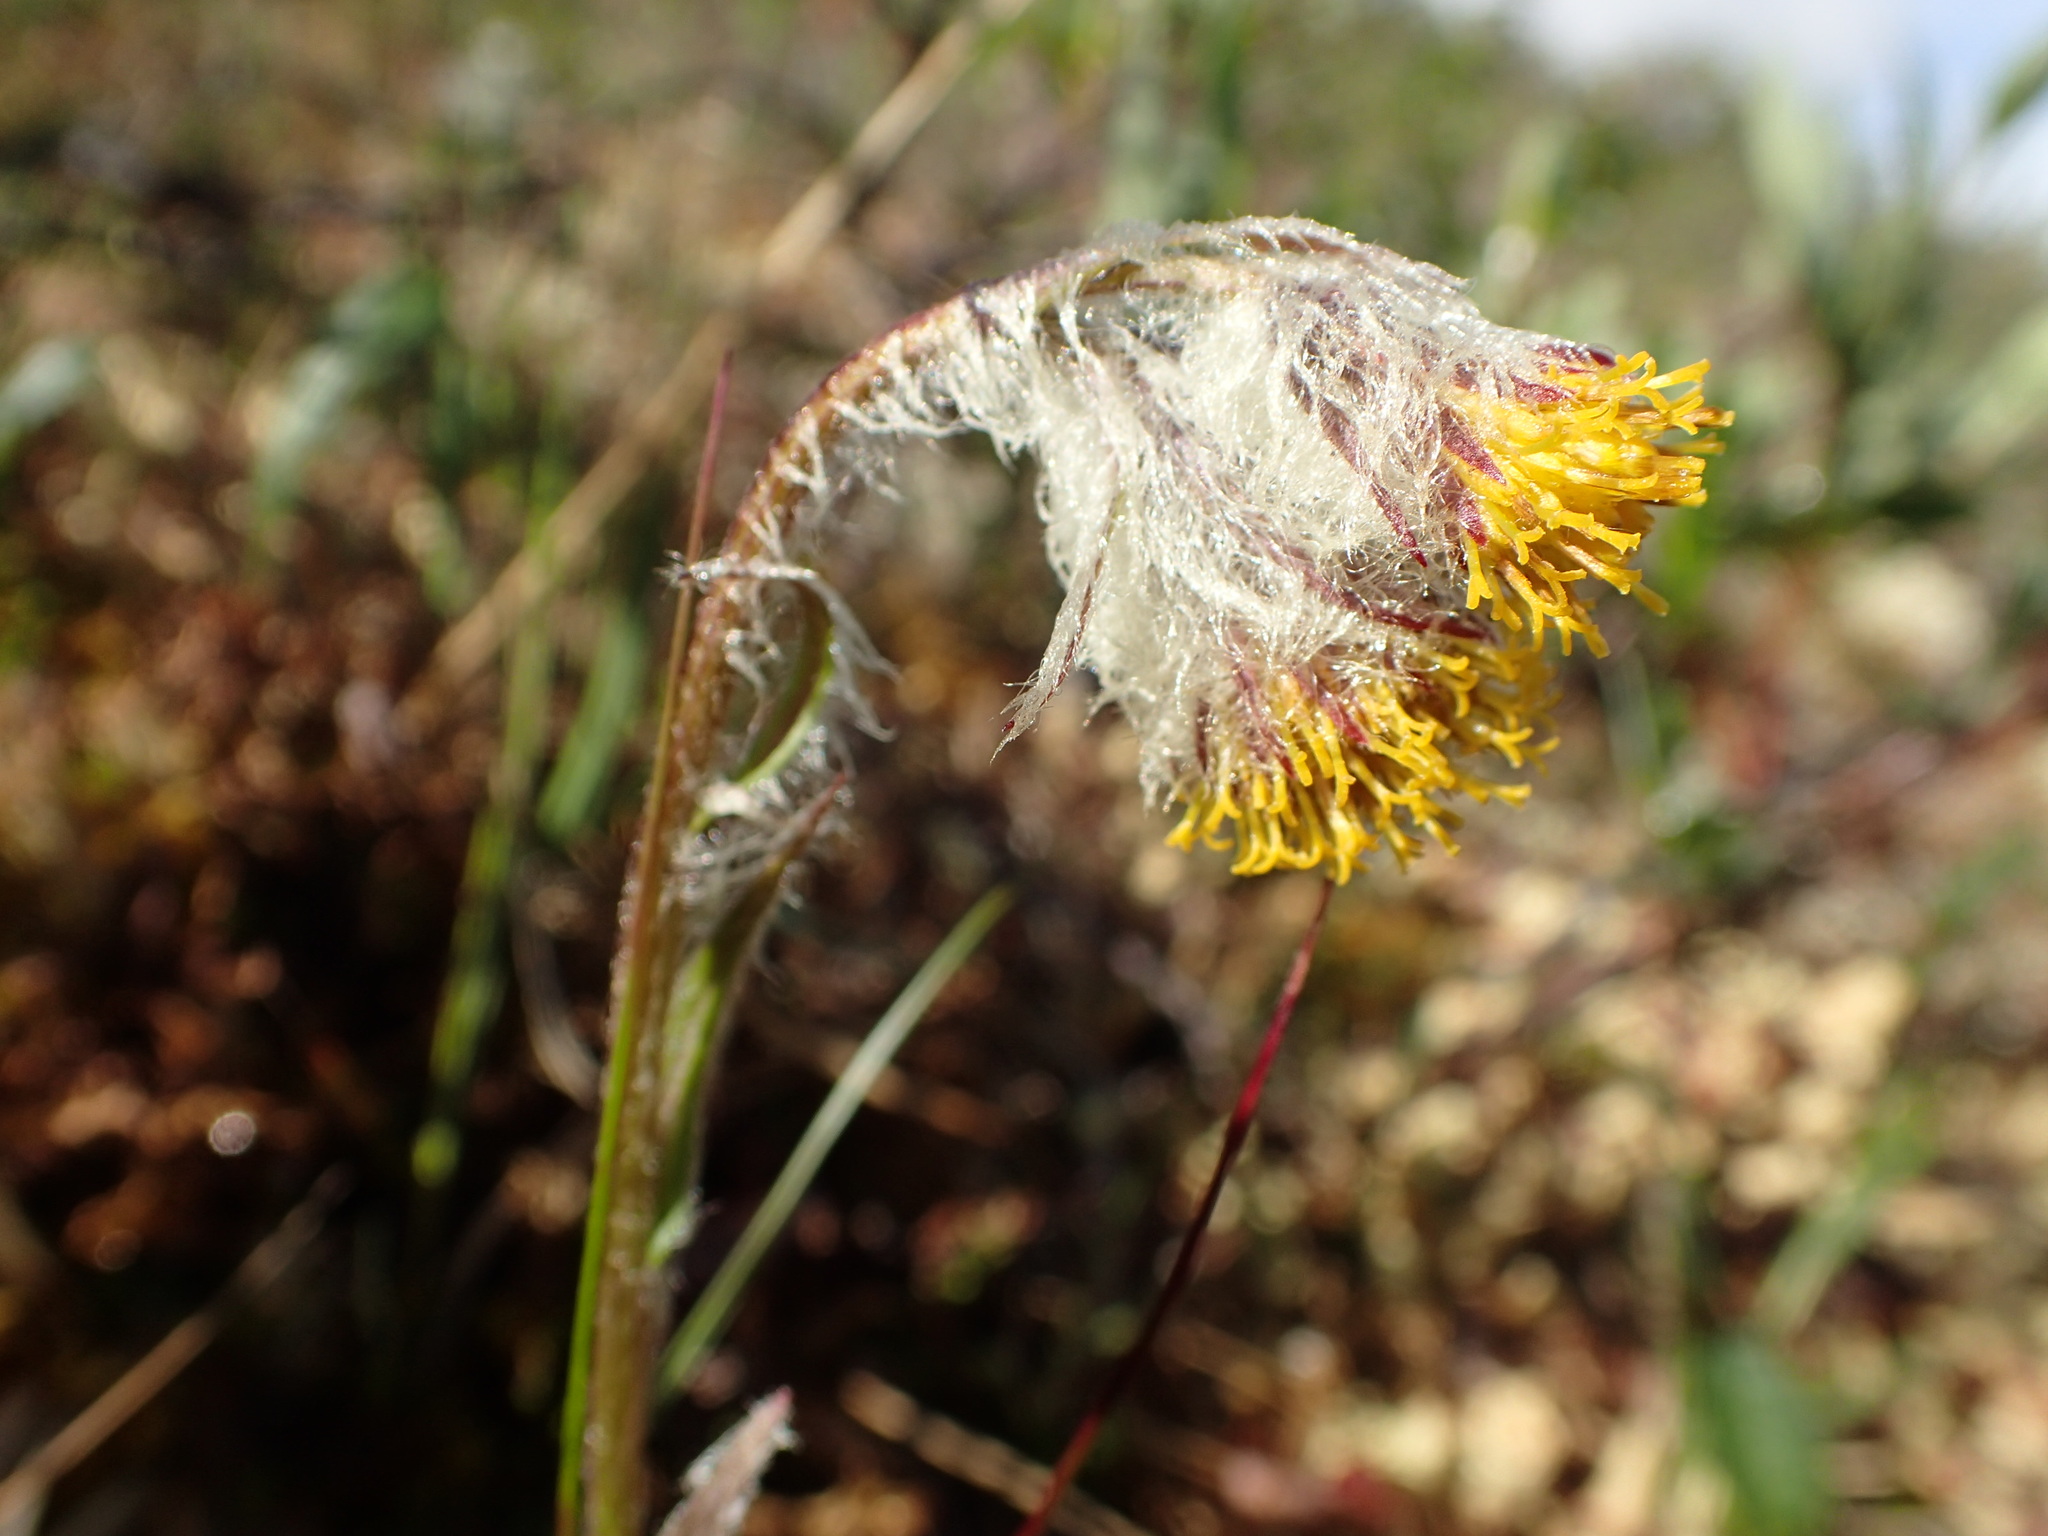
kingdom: Plantae
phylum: Tracheophyta
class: Magnoliopsida
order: Asterales
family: Asteraceae
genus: Tephroseris
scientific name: Tephroseris yukonensis
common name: Yukon groundsel
